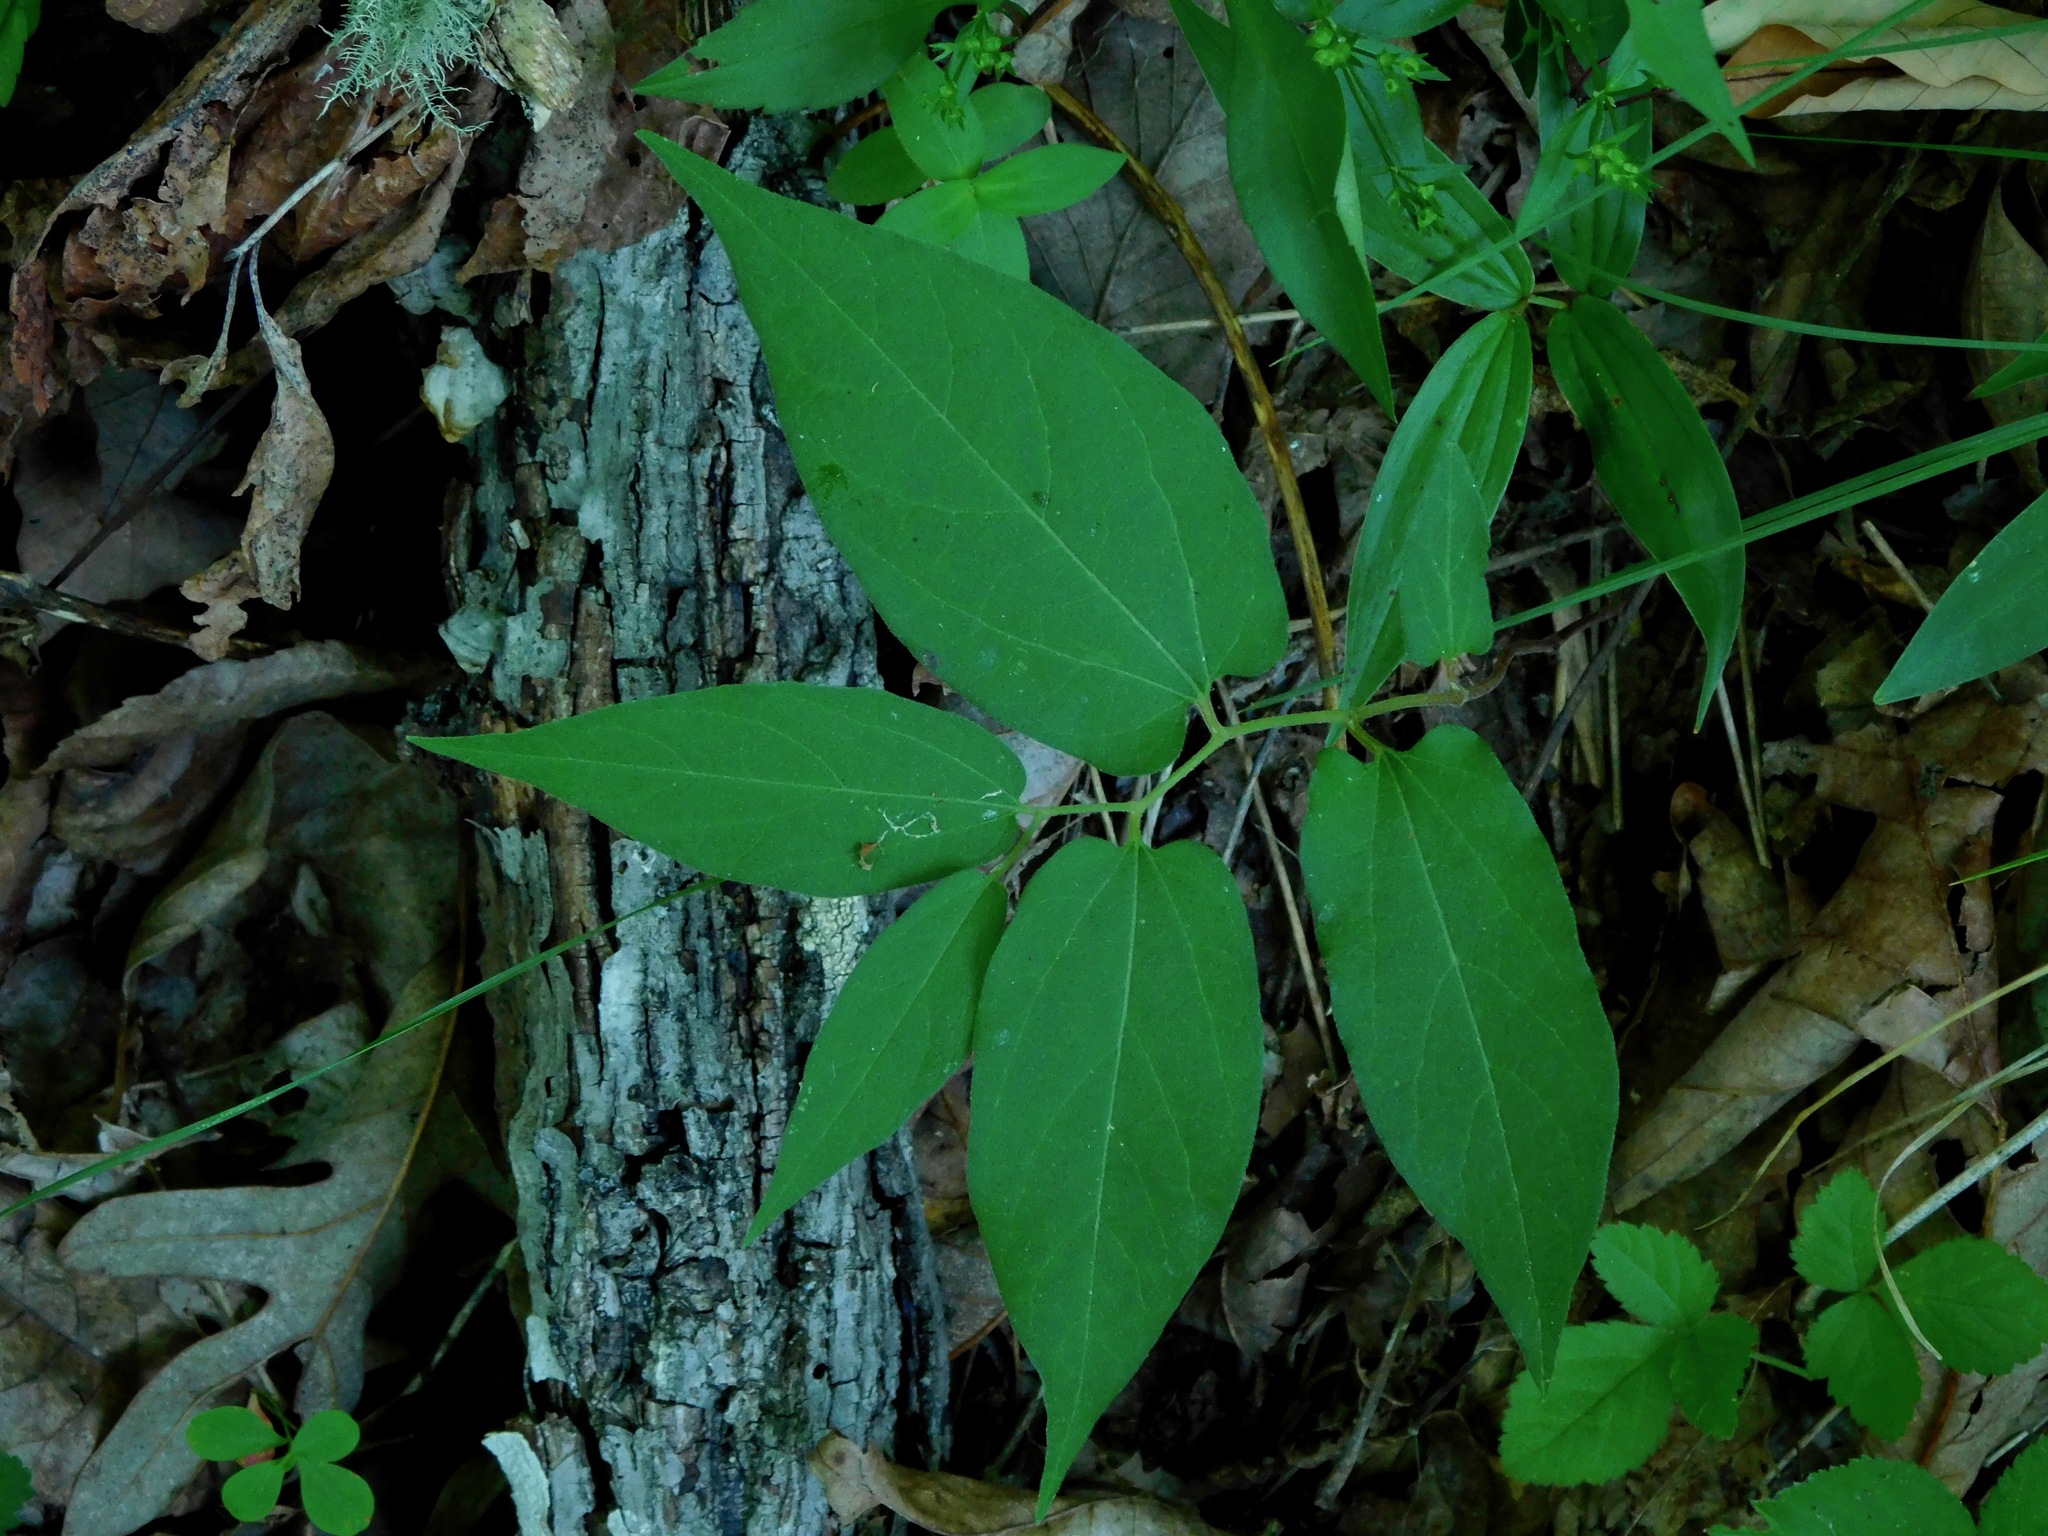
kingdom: Plantae
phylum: Tracheophyta
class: Magnoliopsida
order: Piperales
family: Aristolochiaceae
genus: Endodeca
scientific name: Endodeca serpentaria
